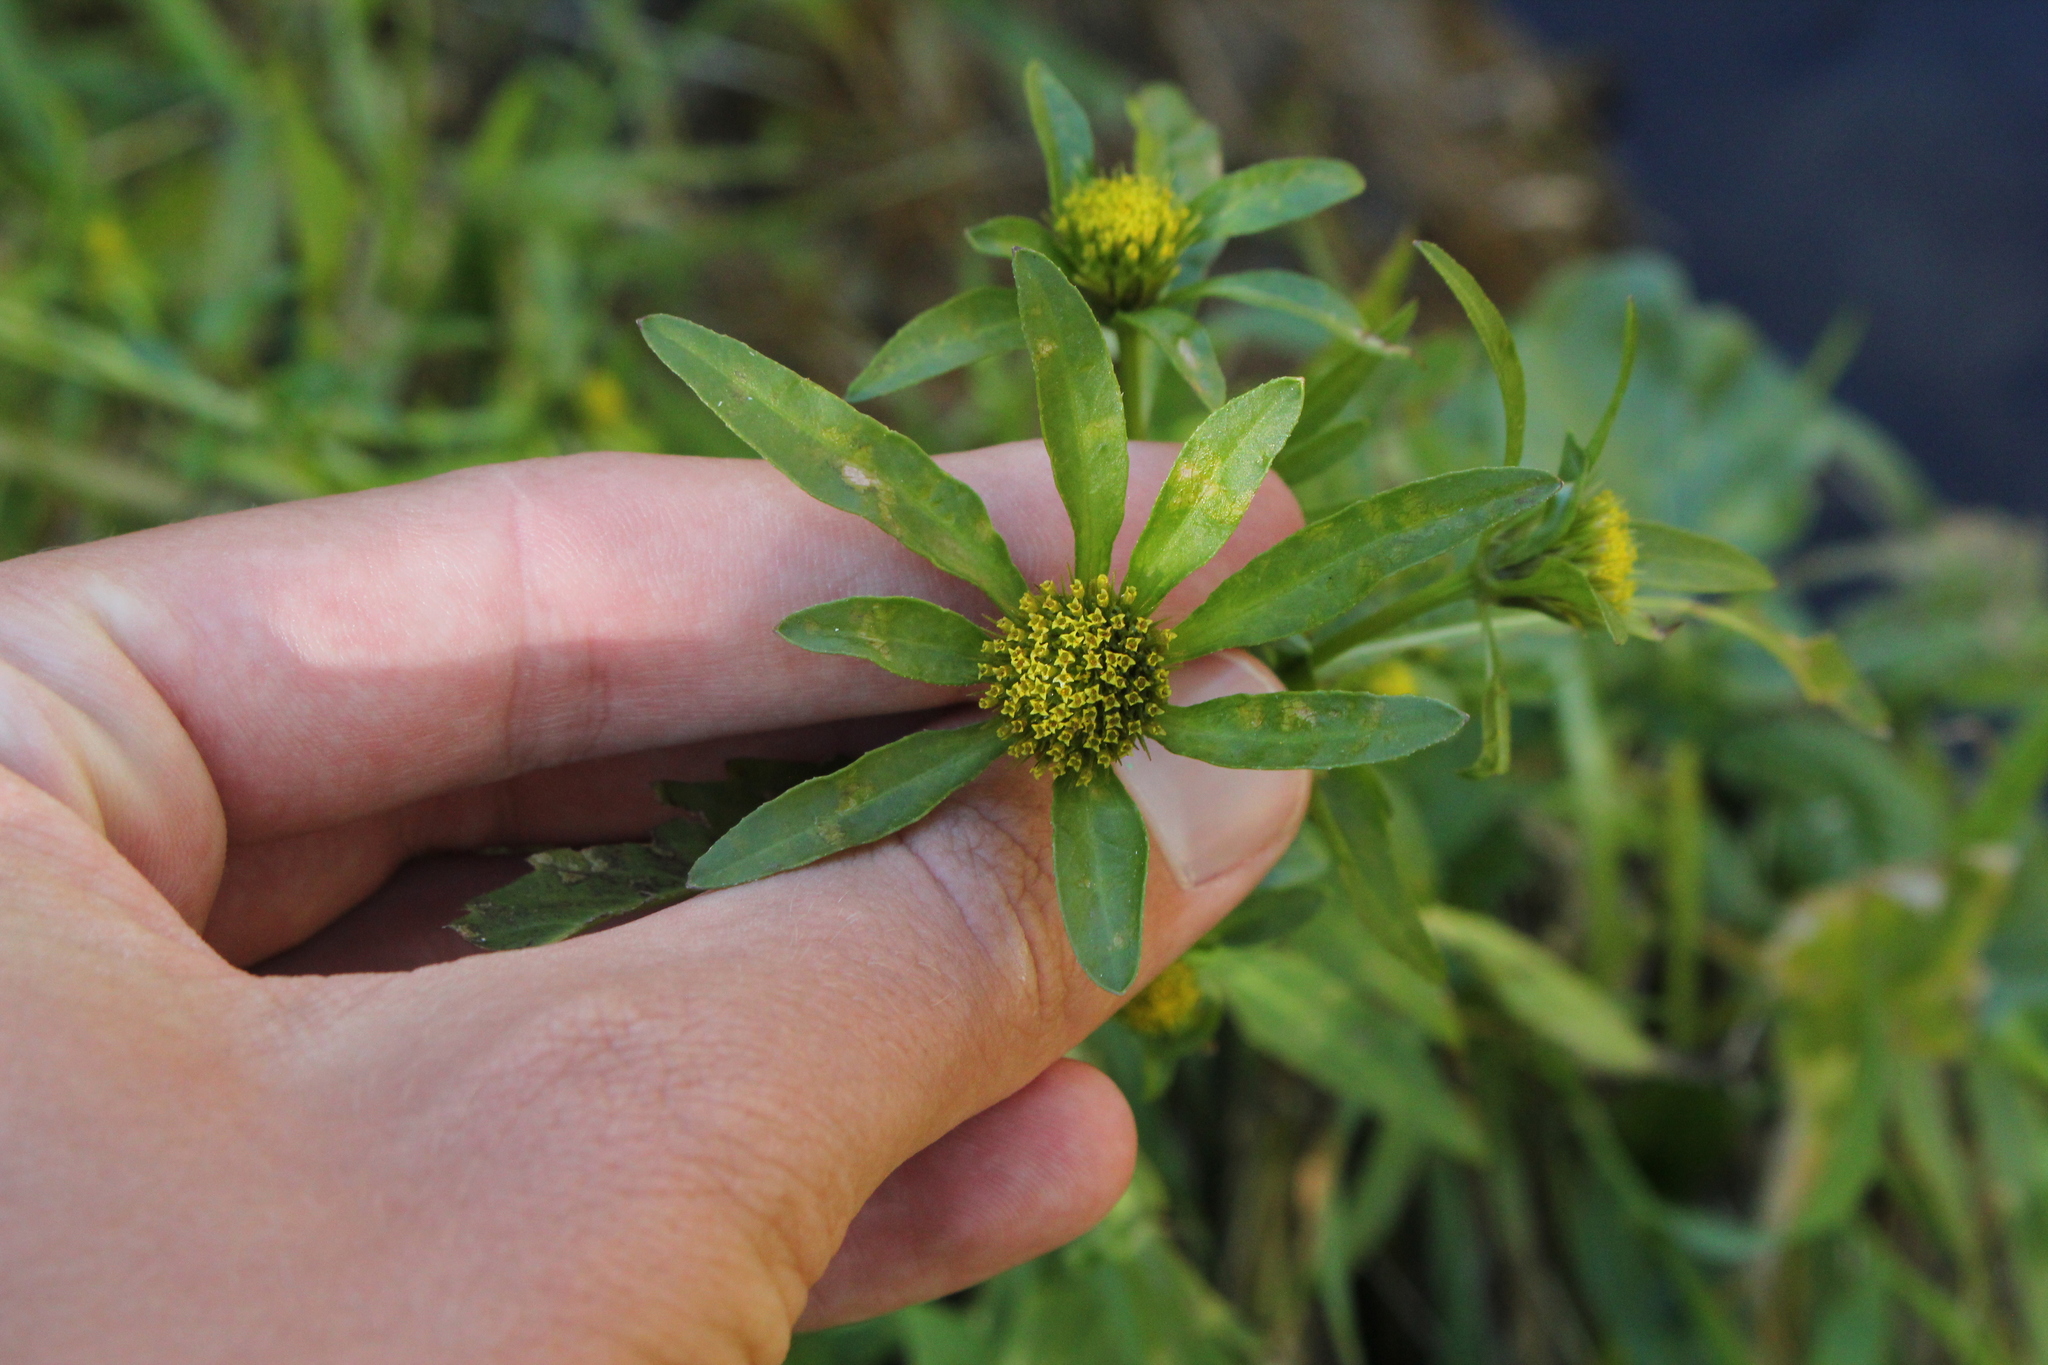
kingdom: Plantae
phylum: Tracheophyta
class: Magnoliopsida
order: Asterales
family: Asteraceae
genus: Bidens
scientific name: Bidens tripartita
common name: Trifid bur-marigold
